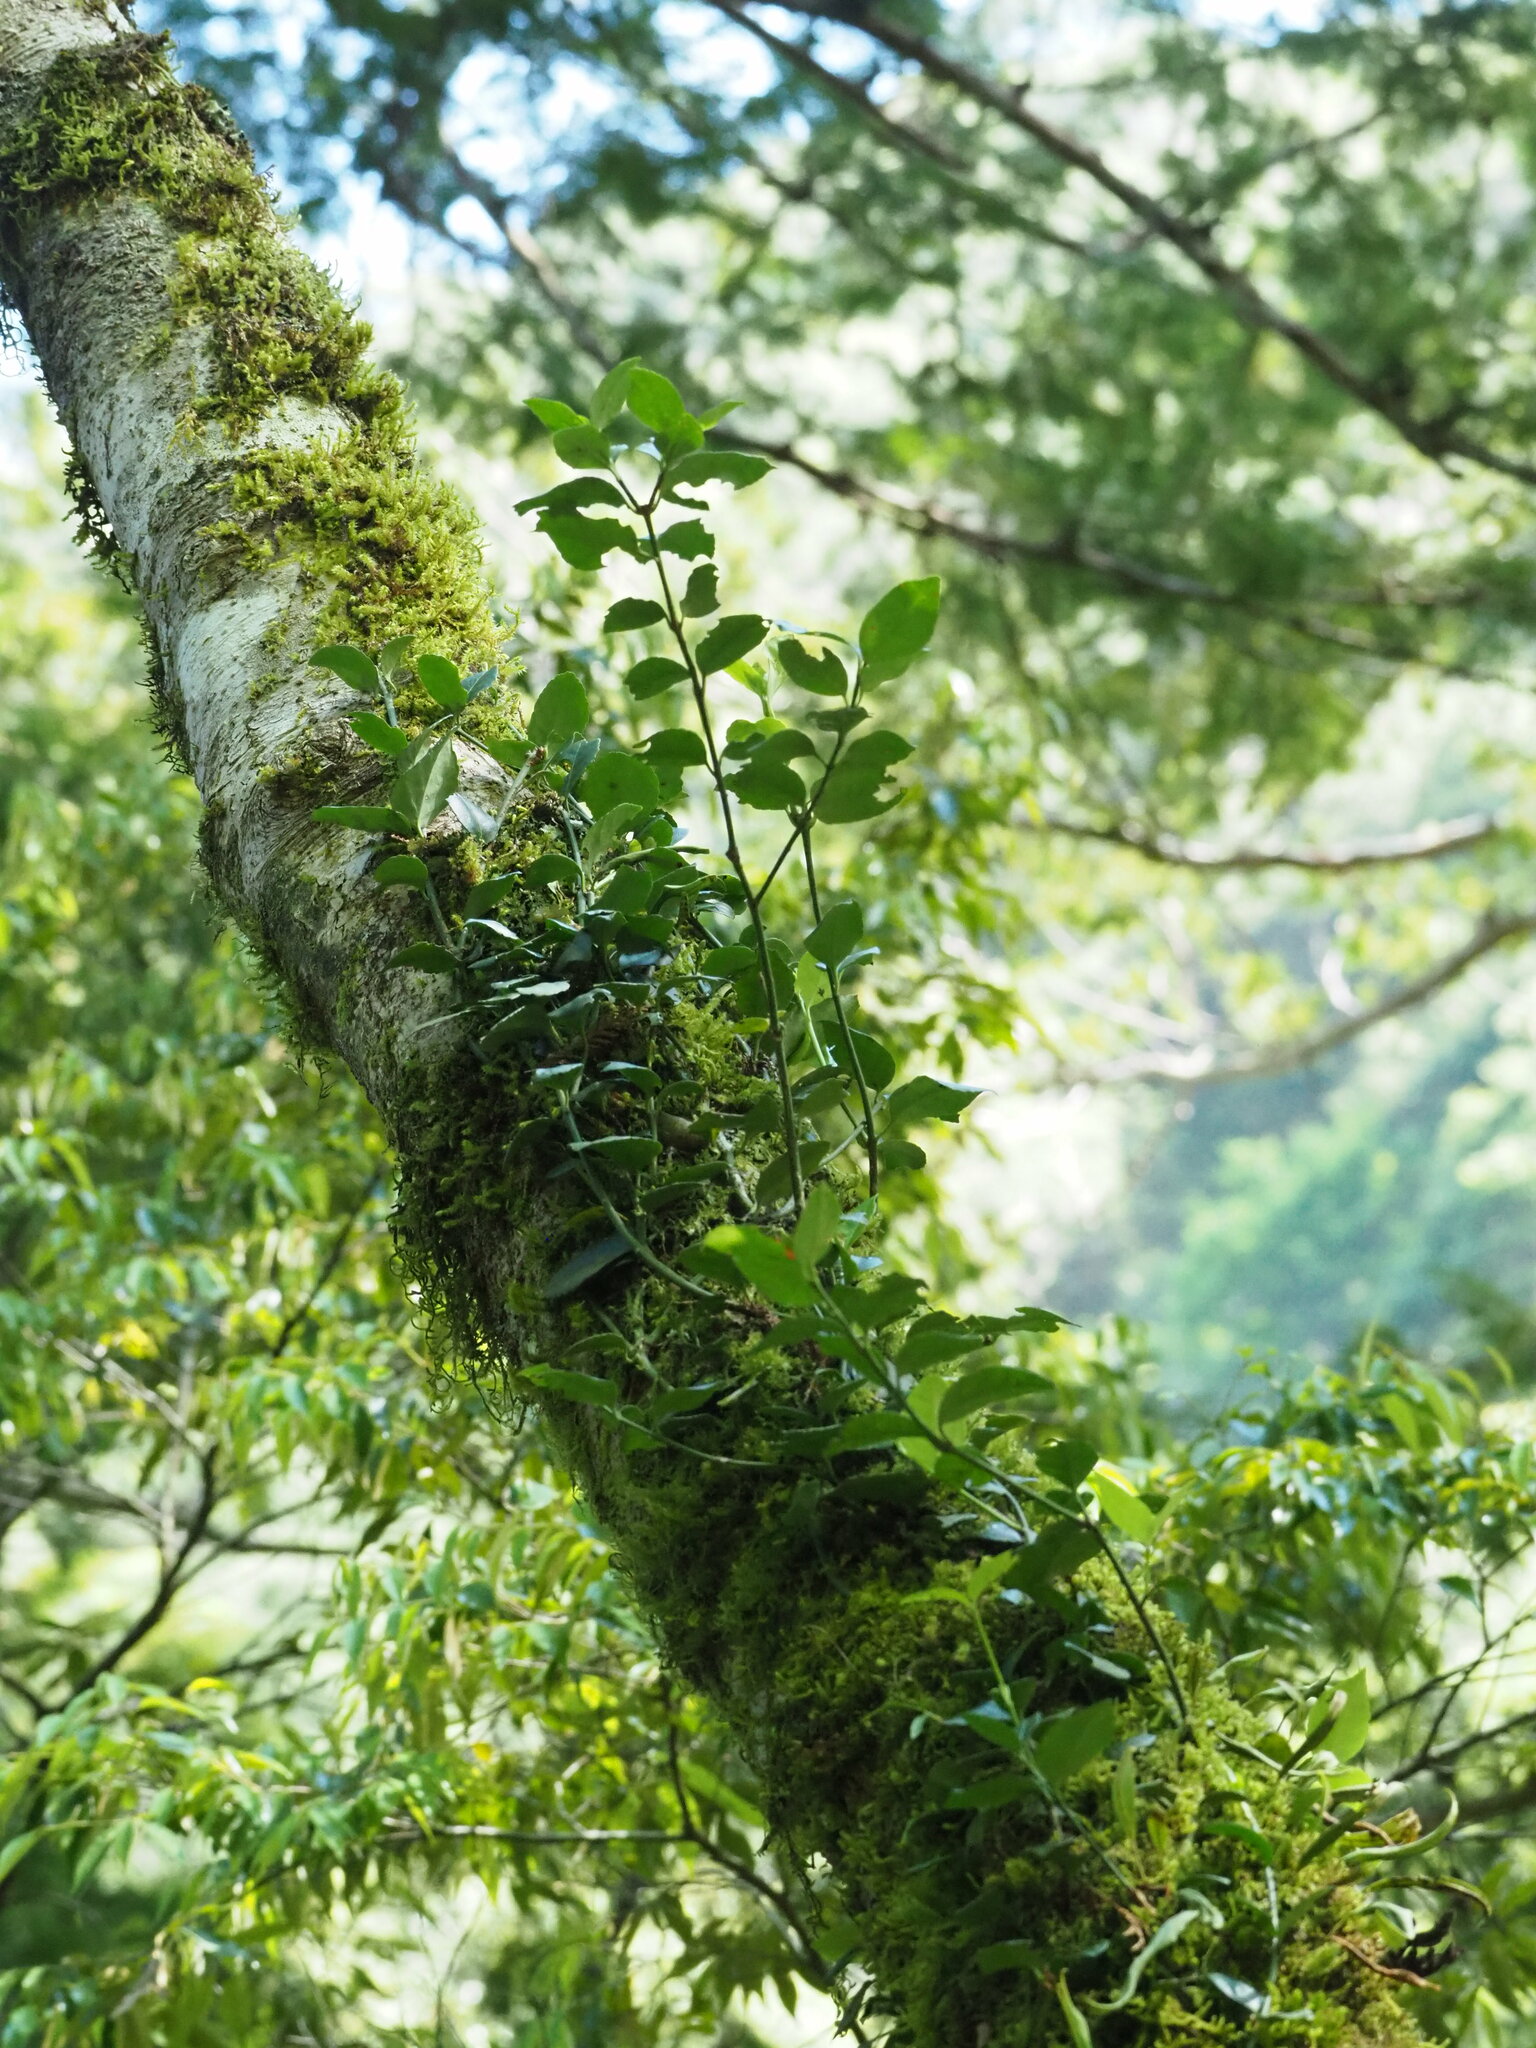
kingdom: Plantae
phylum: Tracheophyta
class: Magnoliopsida
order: Celastrales
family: Celastraceae
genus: Euonymus
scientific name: Euonymus spraguei
